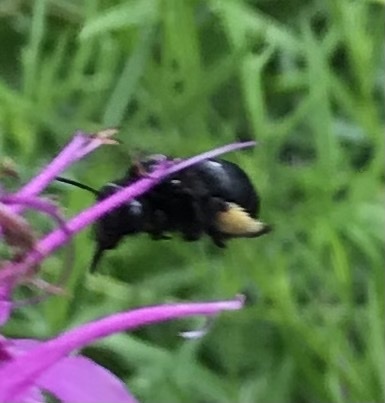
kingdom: Animalia
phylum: Arthropoda
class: Insecta
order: Hymenoptera
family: Apidae
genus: Melissodes
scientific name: Melissodes bimaculatus
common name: Two-spotted long-horned bee
